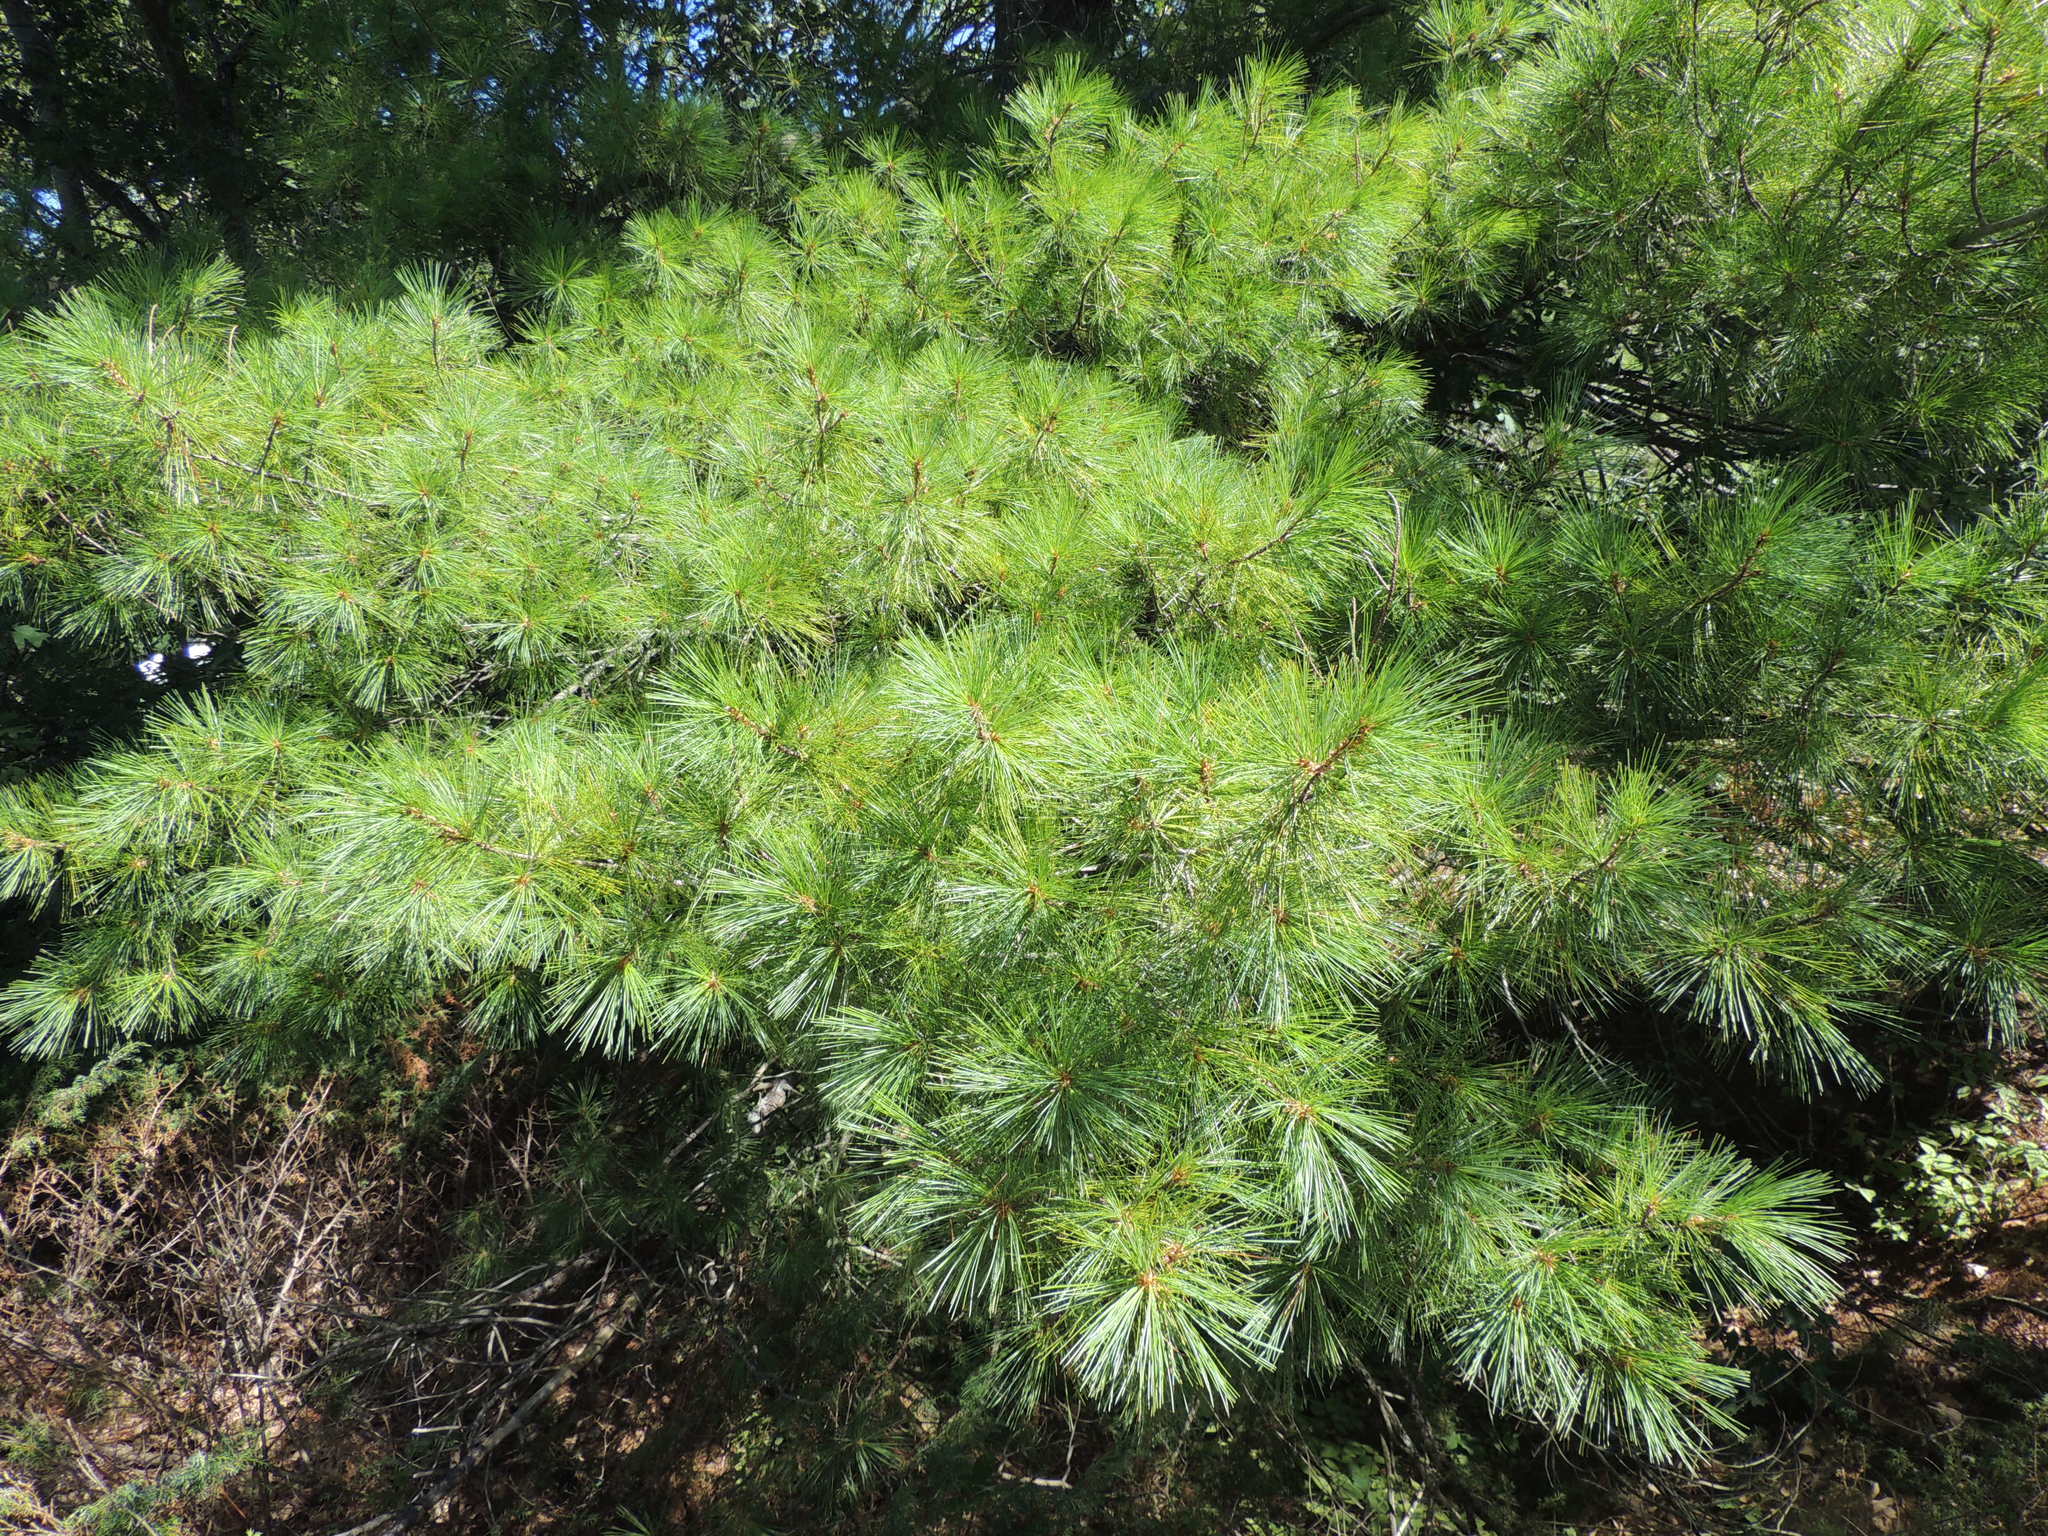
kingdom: Plantae
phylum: Tracheophyta
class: Pinopsida
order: Pinales
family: Pinaceae
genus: Pinus
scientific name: Pinus strobus
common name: Weymouth pine
